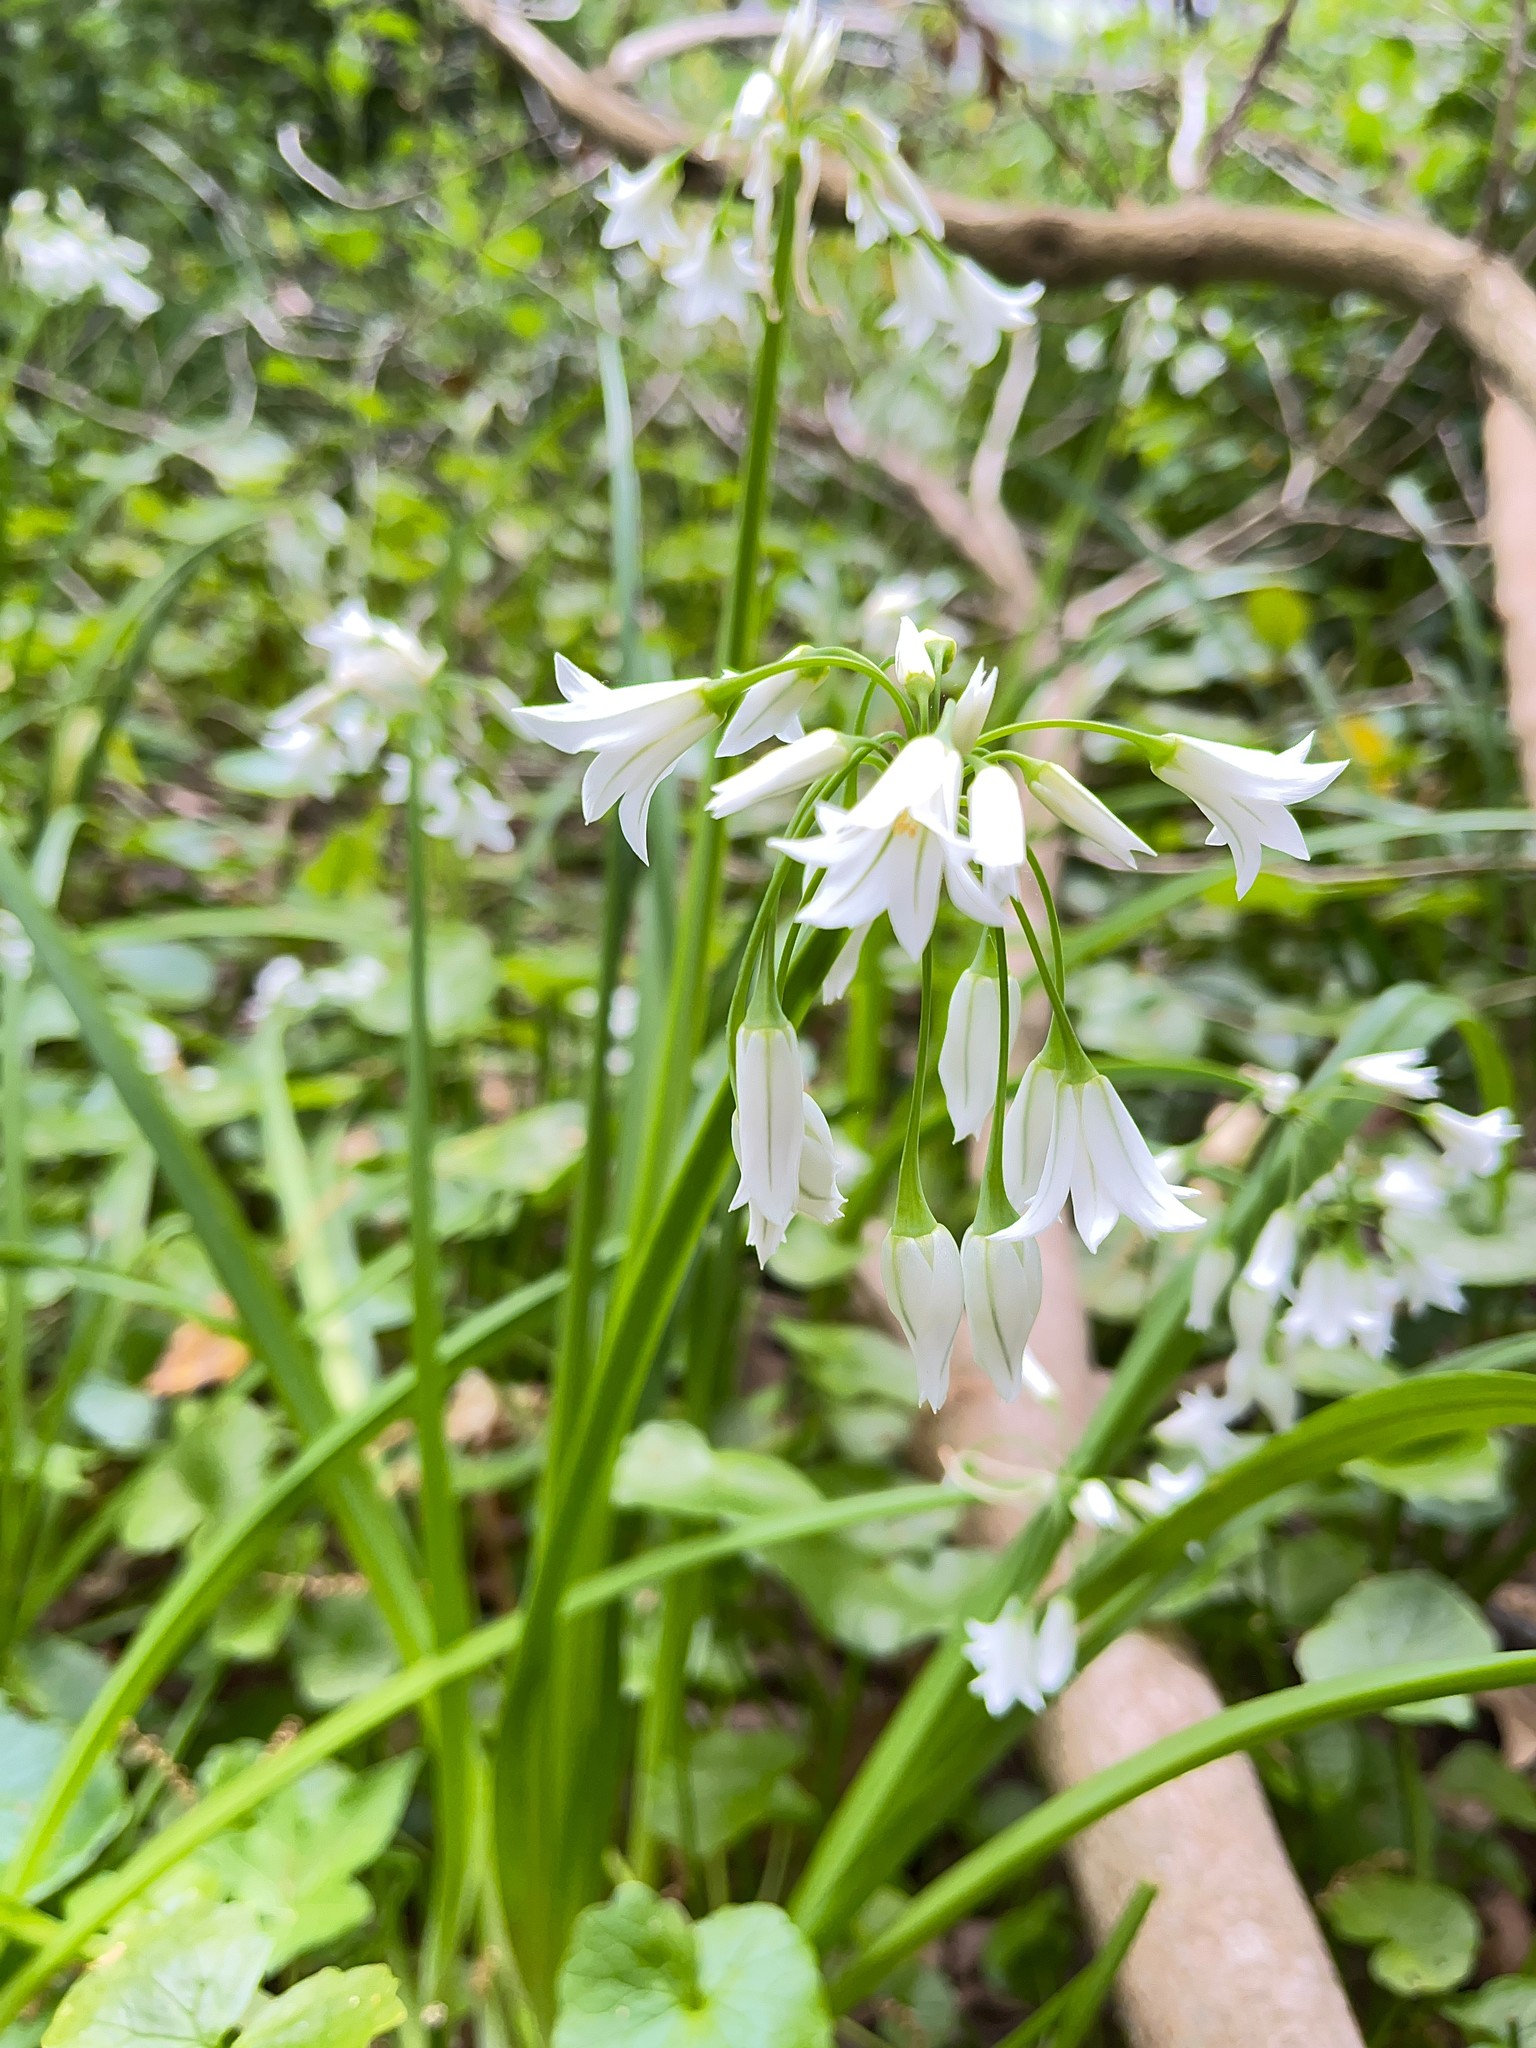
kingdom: Plantae
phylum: Tracheophyta
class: Liliopsida
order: Asparagales
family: Amaryllidaceae
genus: Allium
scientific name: Allium triquetrum
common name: Three-cornered garlic
